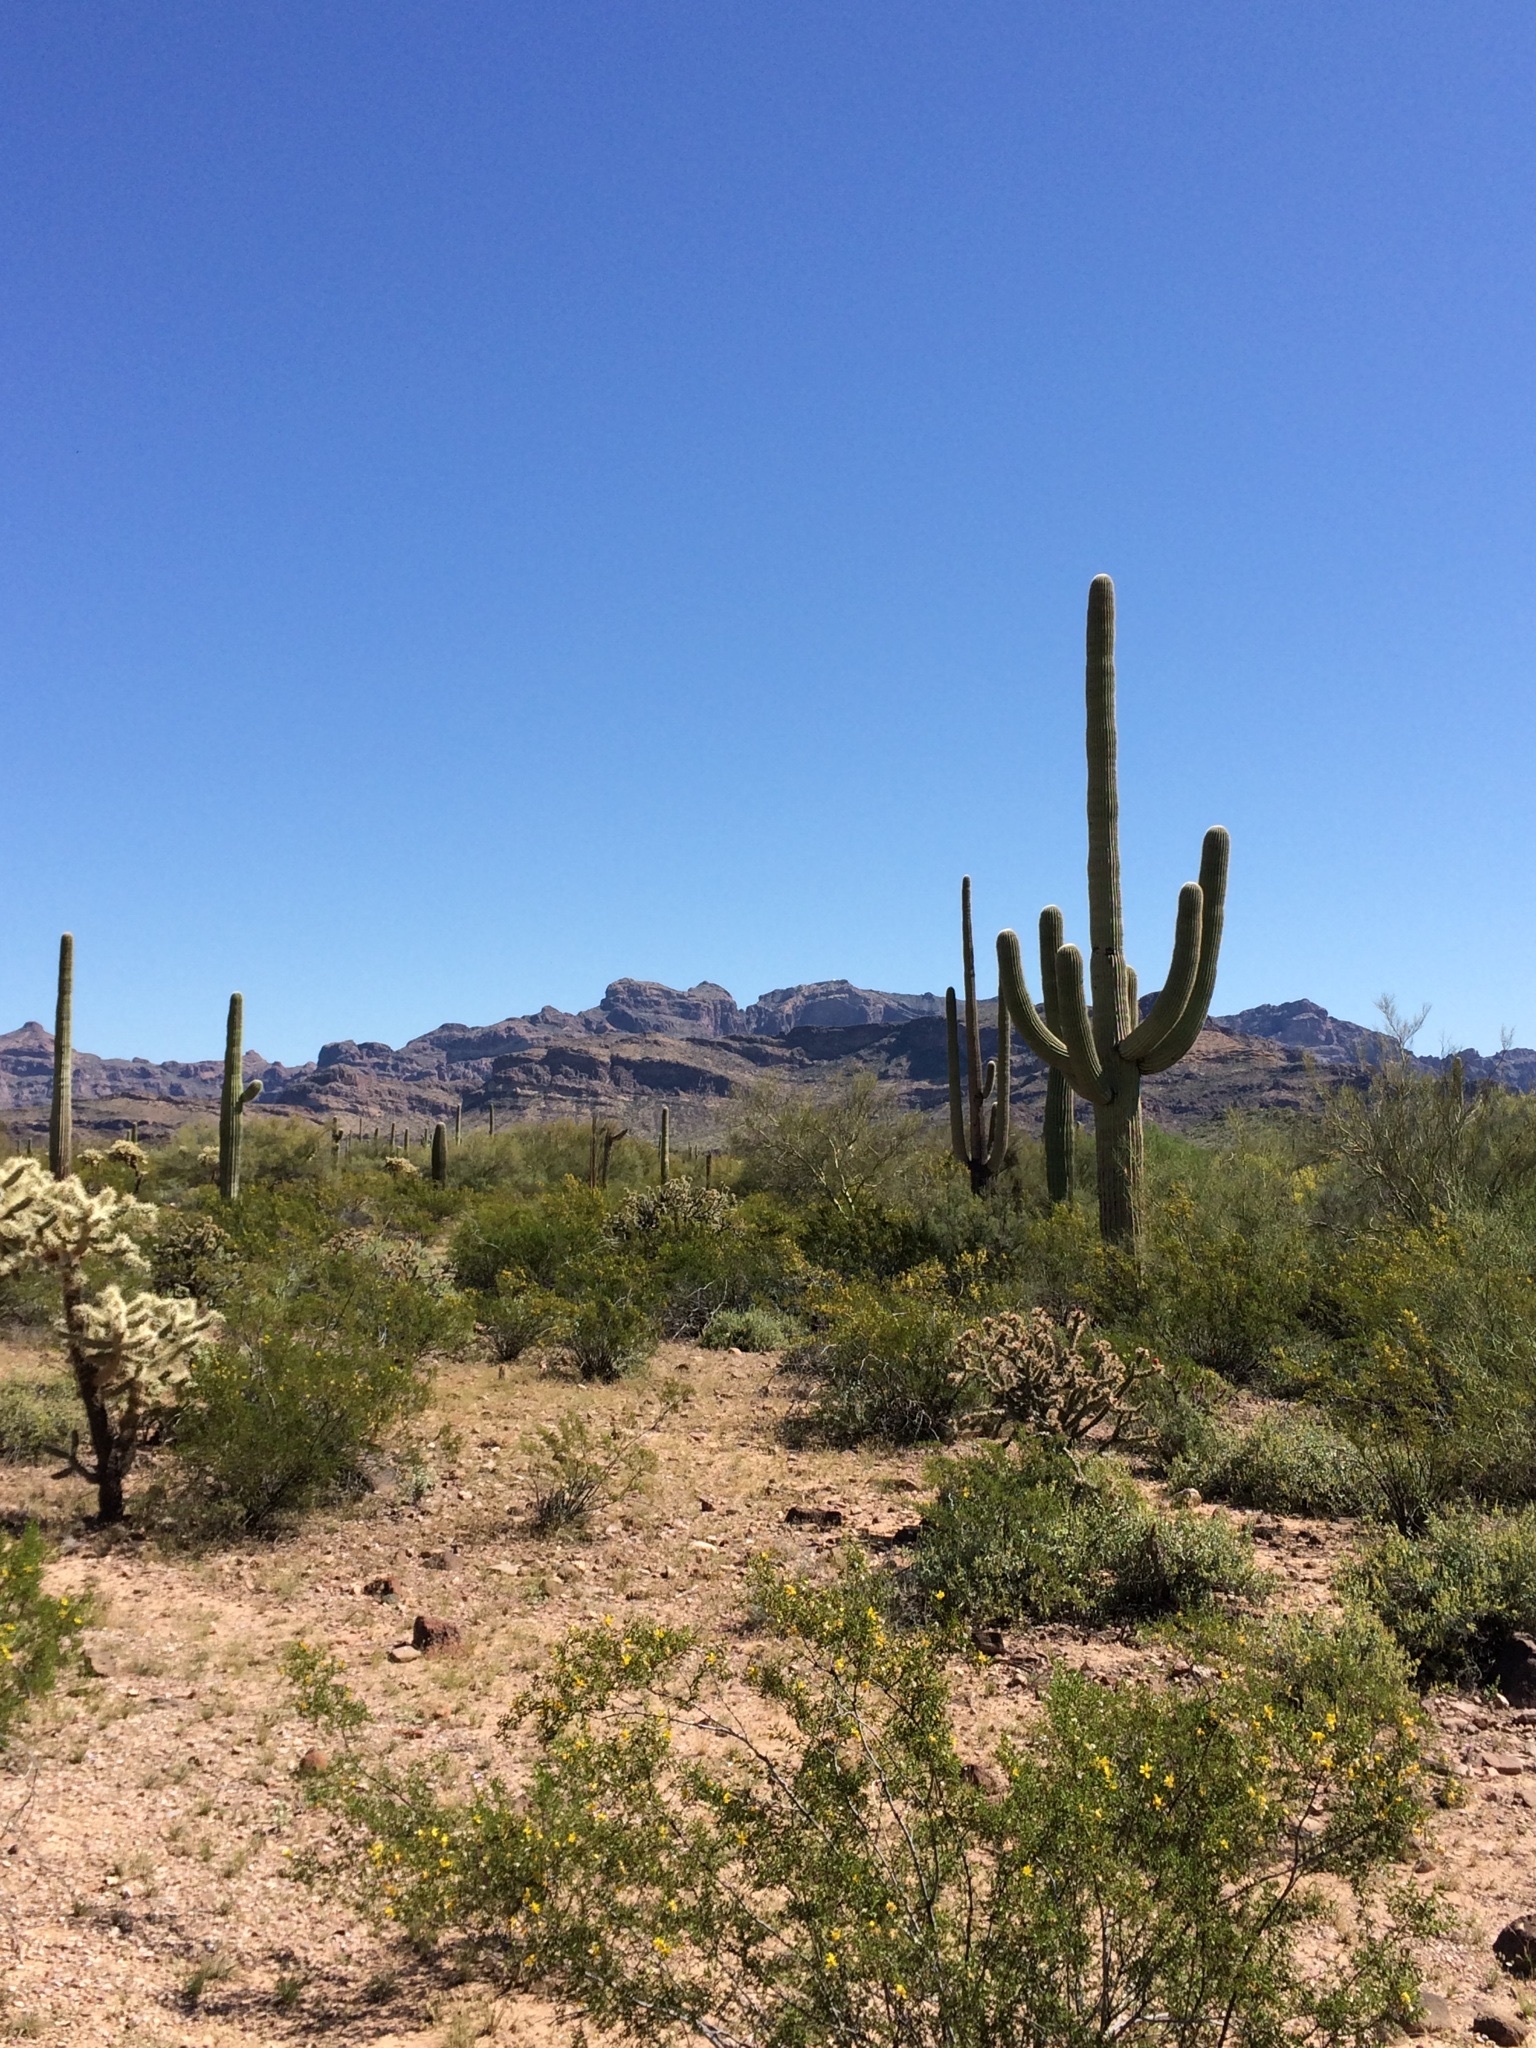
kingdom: Plantae
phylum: Tracheophyta
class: Magnoliopsida
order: Caryophyllales
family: Cactaceae
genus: Carnegiea
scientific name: Carnegiea gigantea
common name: Saguaro
